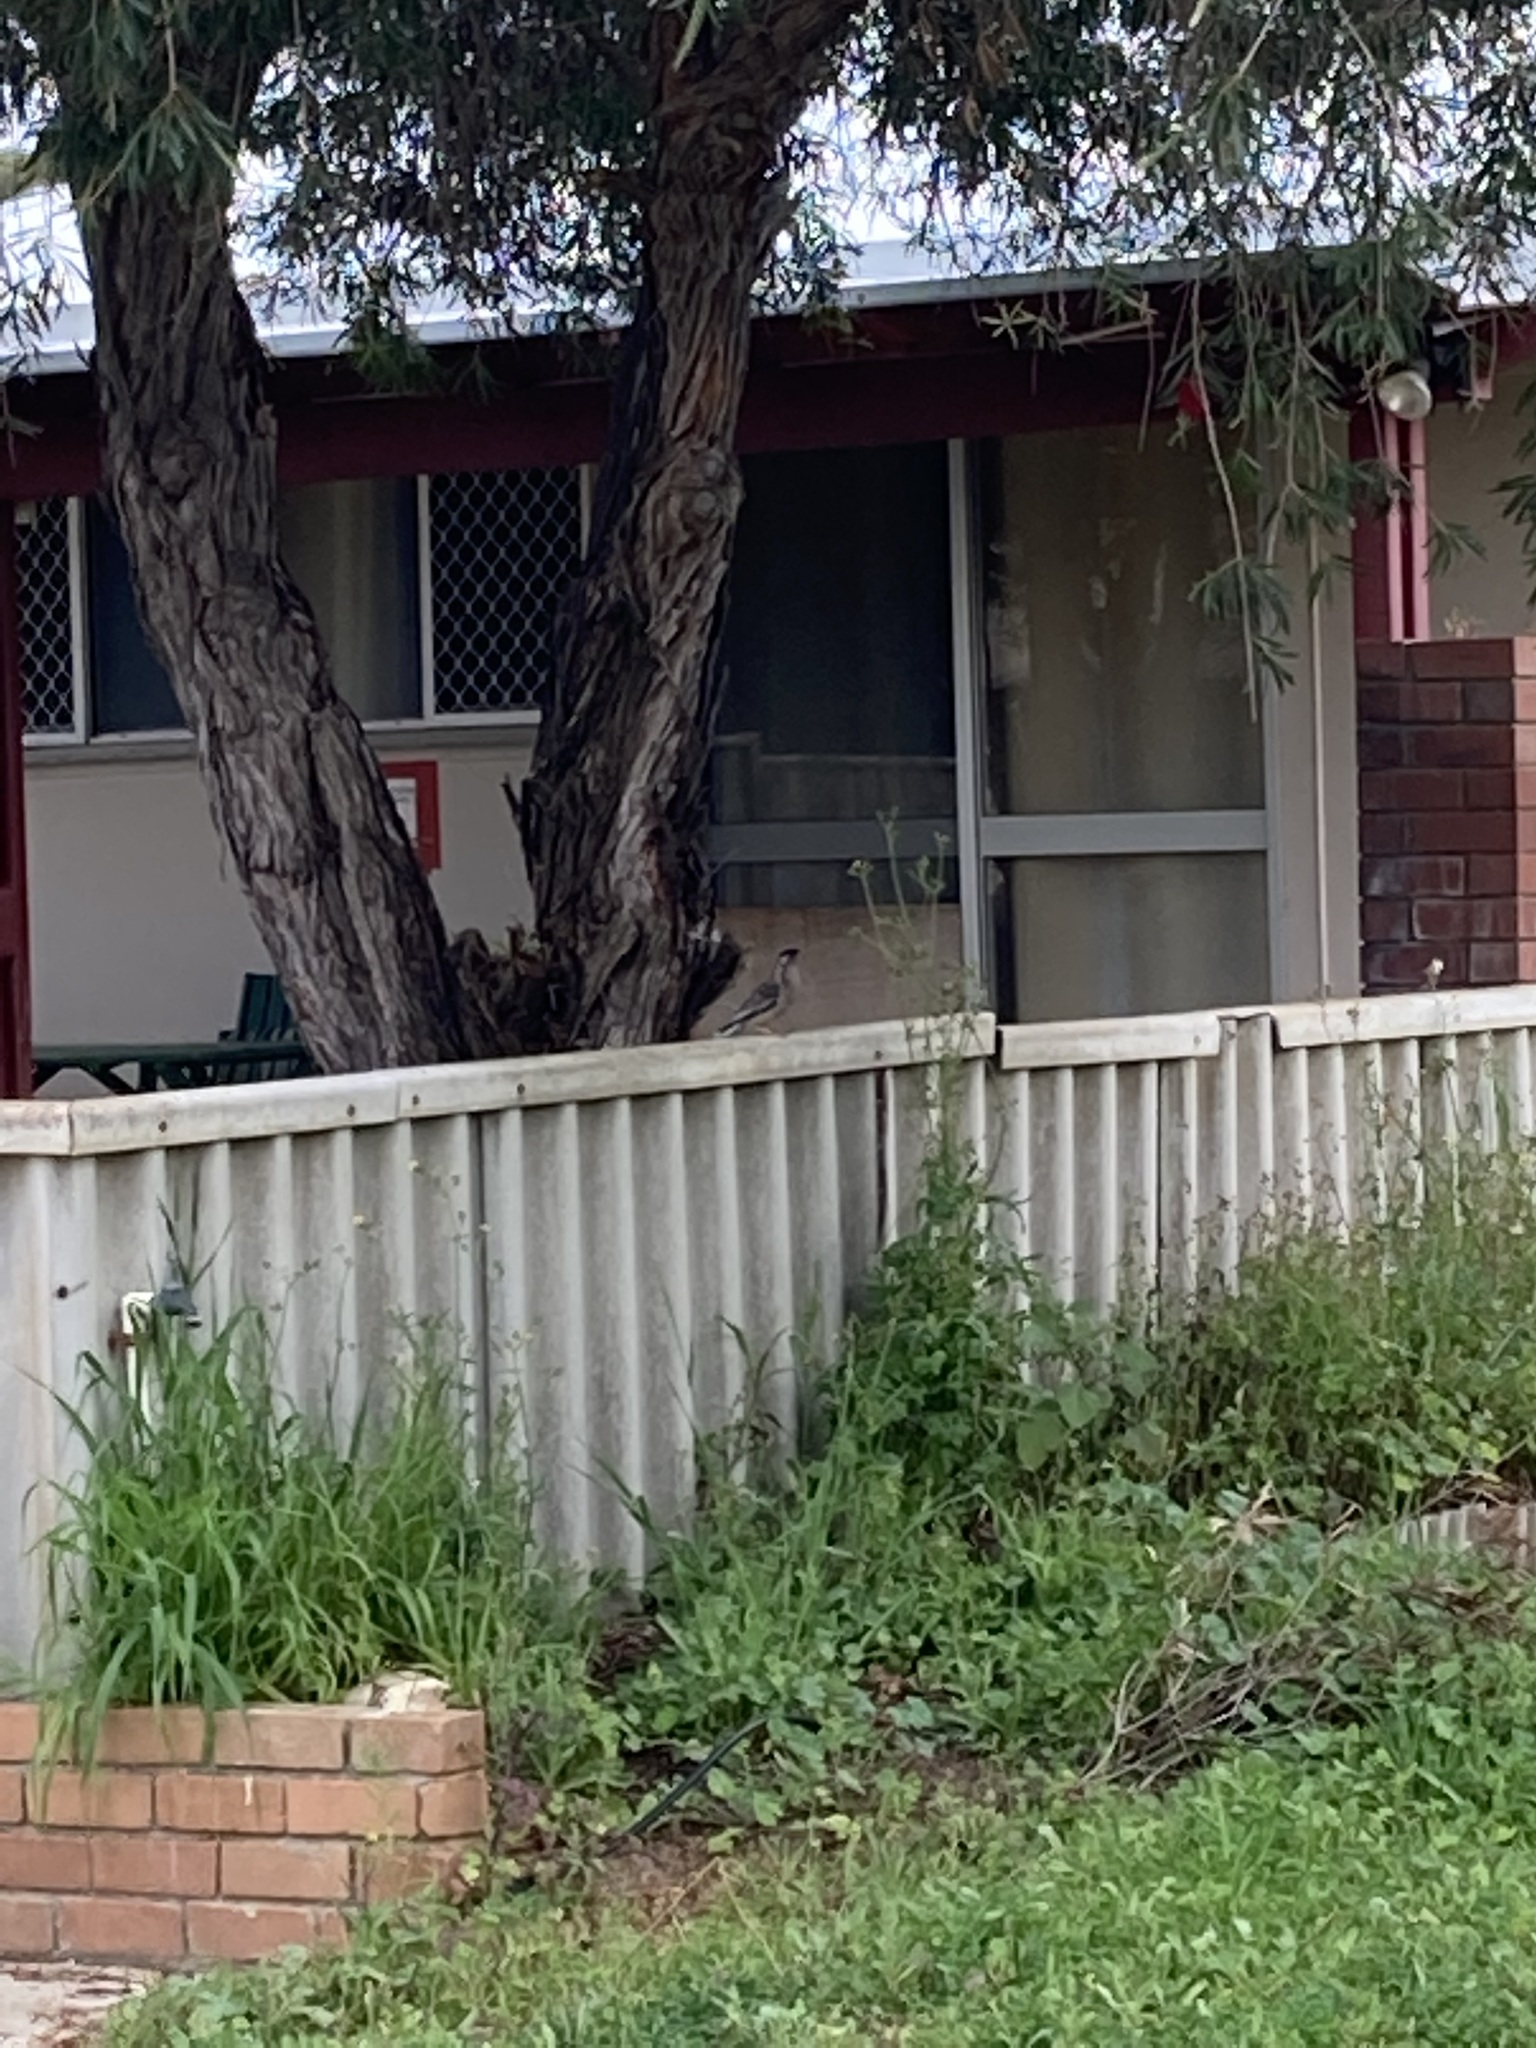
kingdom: Animalia
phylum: Chordata
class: Aves
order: Passeriformes
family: Meliphagidae
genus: Anthochaera
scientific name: Anthochaera carunculata
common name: Red wattlebird
